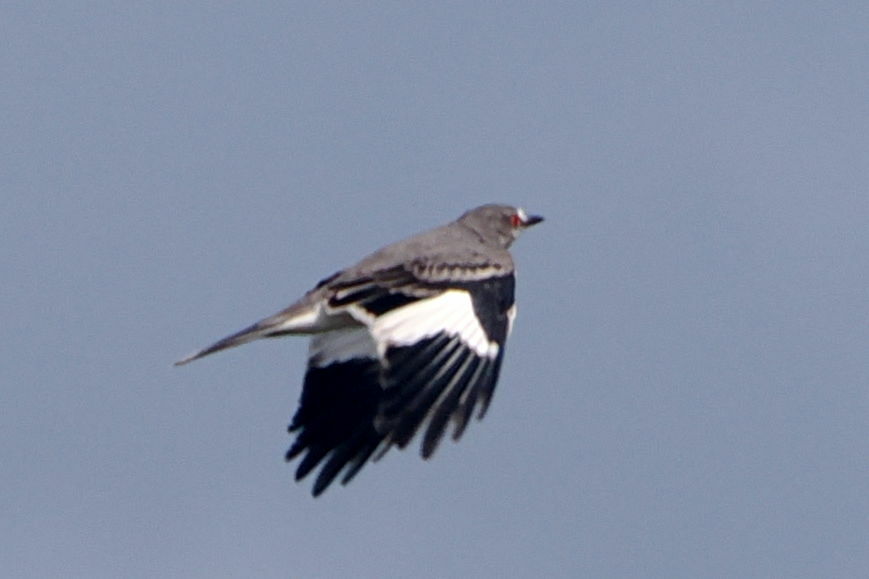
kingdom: Animalia
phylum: Chordata
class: Aves
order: Passeriformes
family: Tyrannidae
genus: Xolmis
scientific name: Xolmis cinereus
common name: Grey monjita
